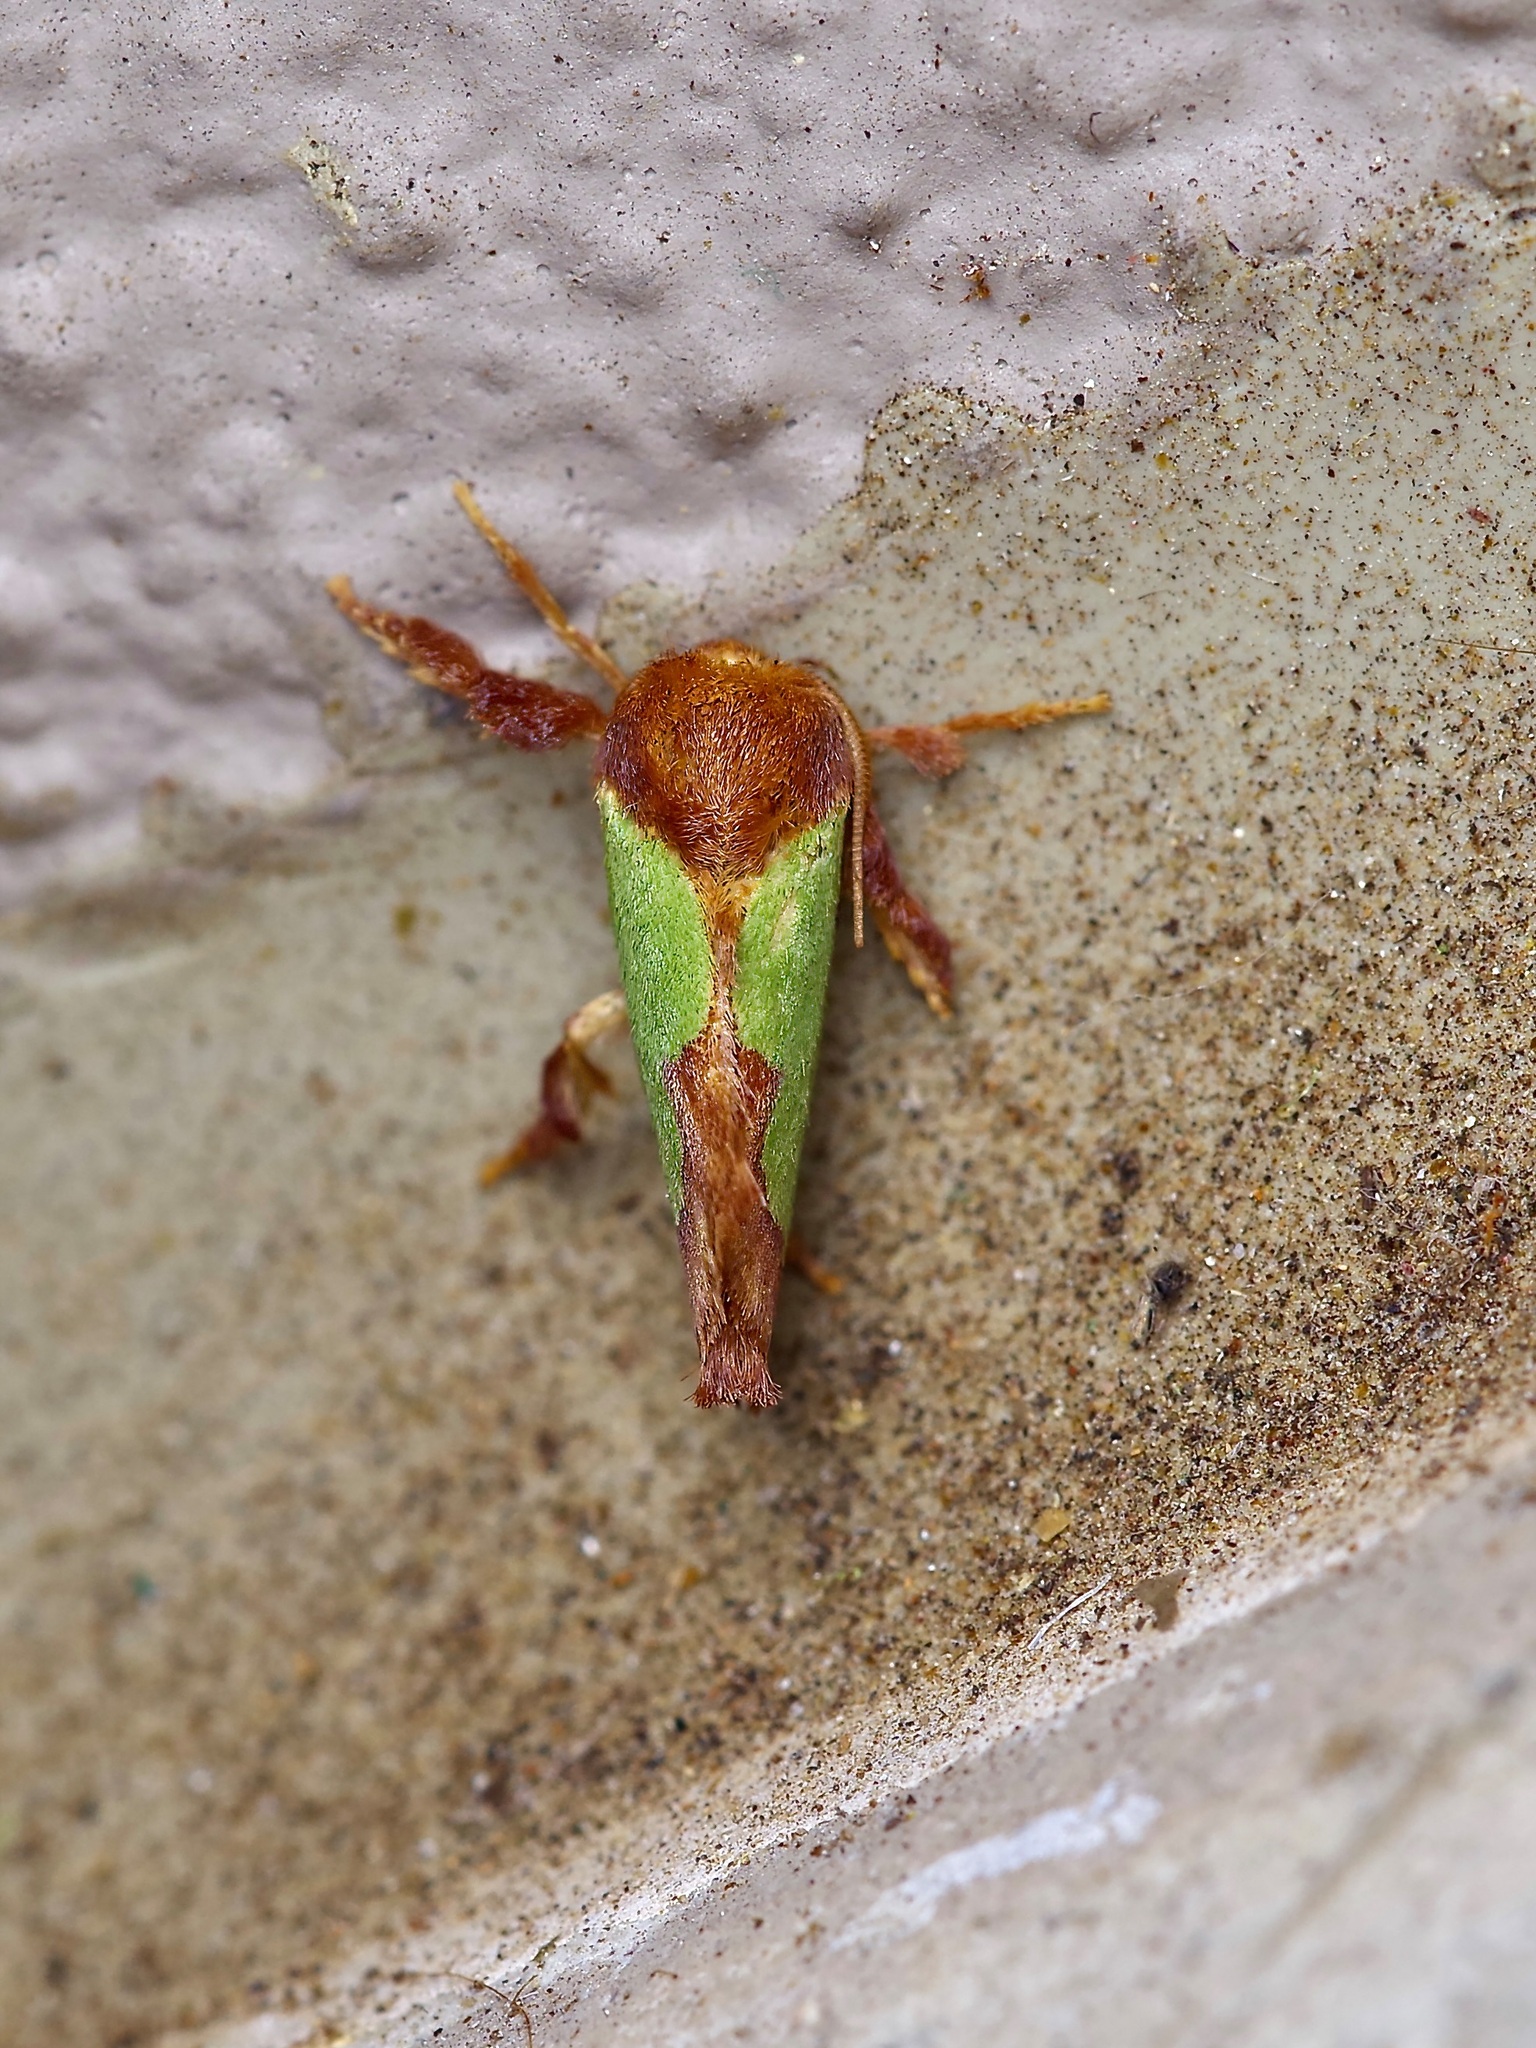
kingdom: Animalia
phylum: Arthropoda
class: Insecta
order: Lepidoptera
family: Limacodidae
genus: Euclea
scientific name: Euclea incisa
